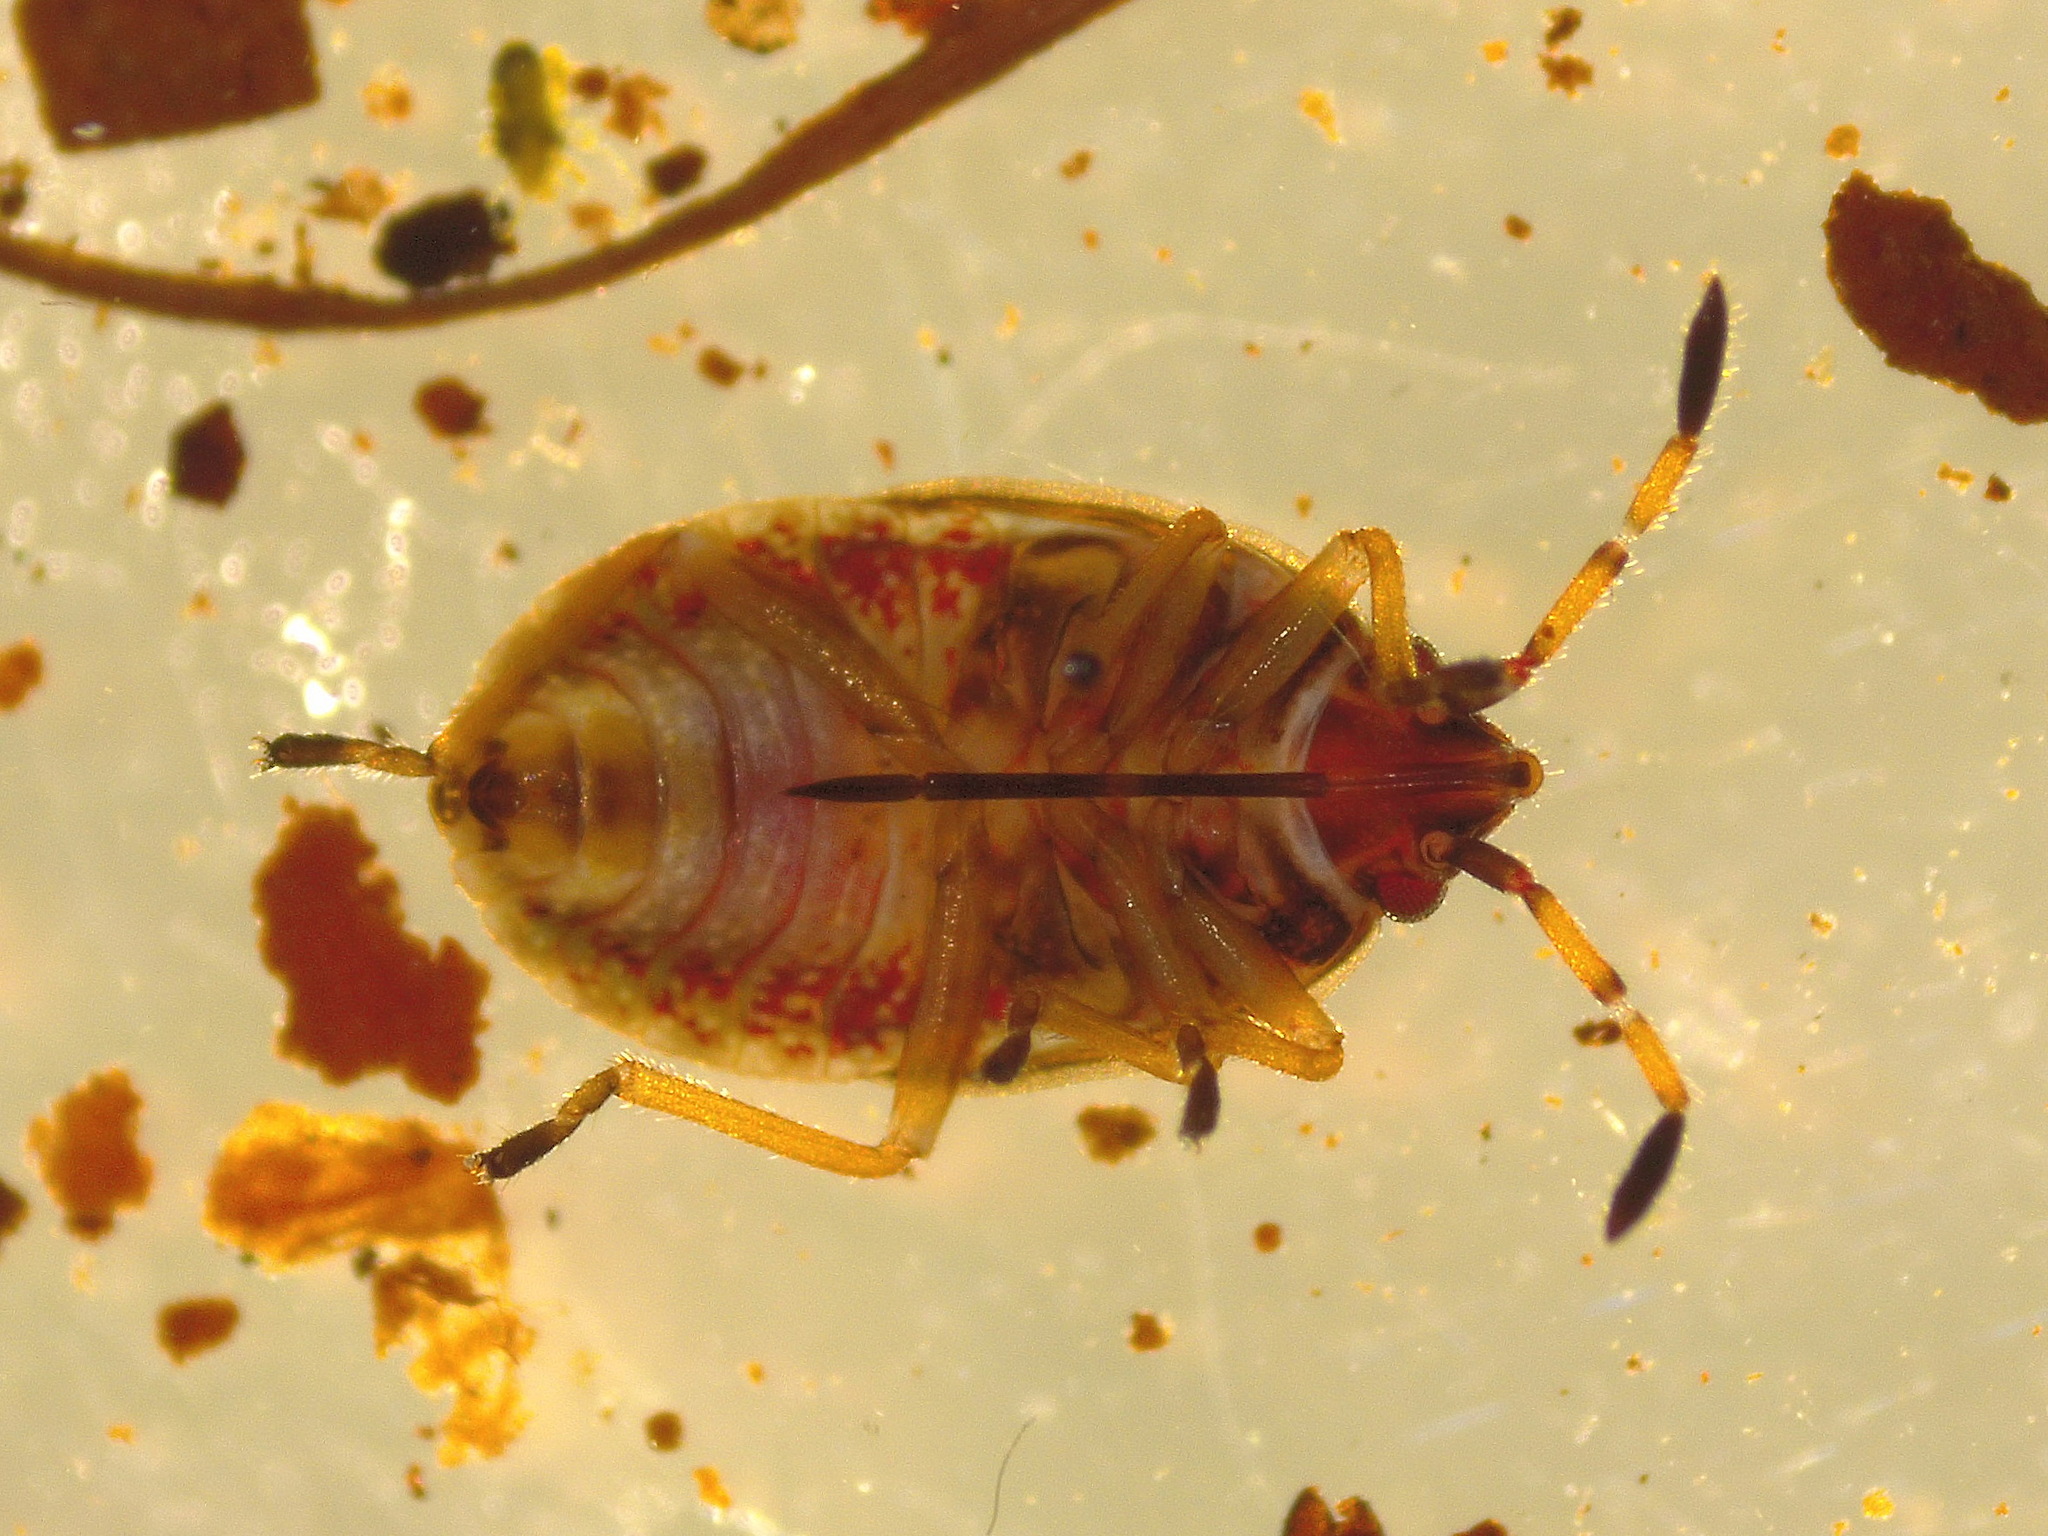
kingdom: Animalia
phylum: Arthropoda
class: Insecta
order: Hemiptera
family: Lygaeidae
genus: Kleidocerys
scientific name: Kleidocerys resedae
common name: Birch catkin bug
